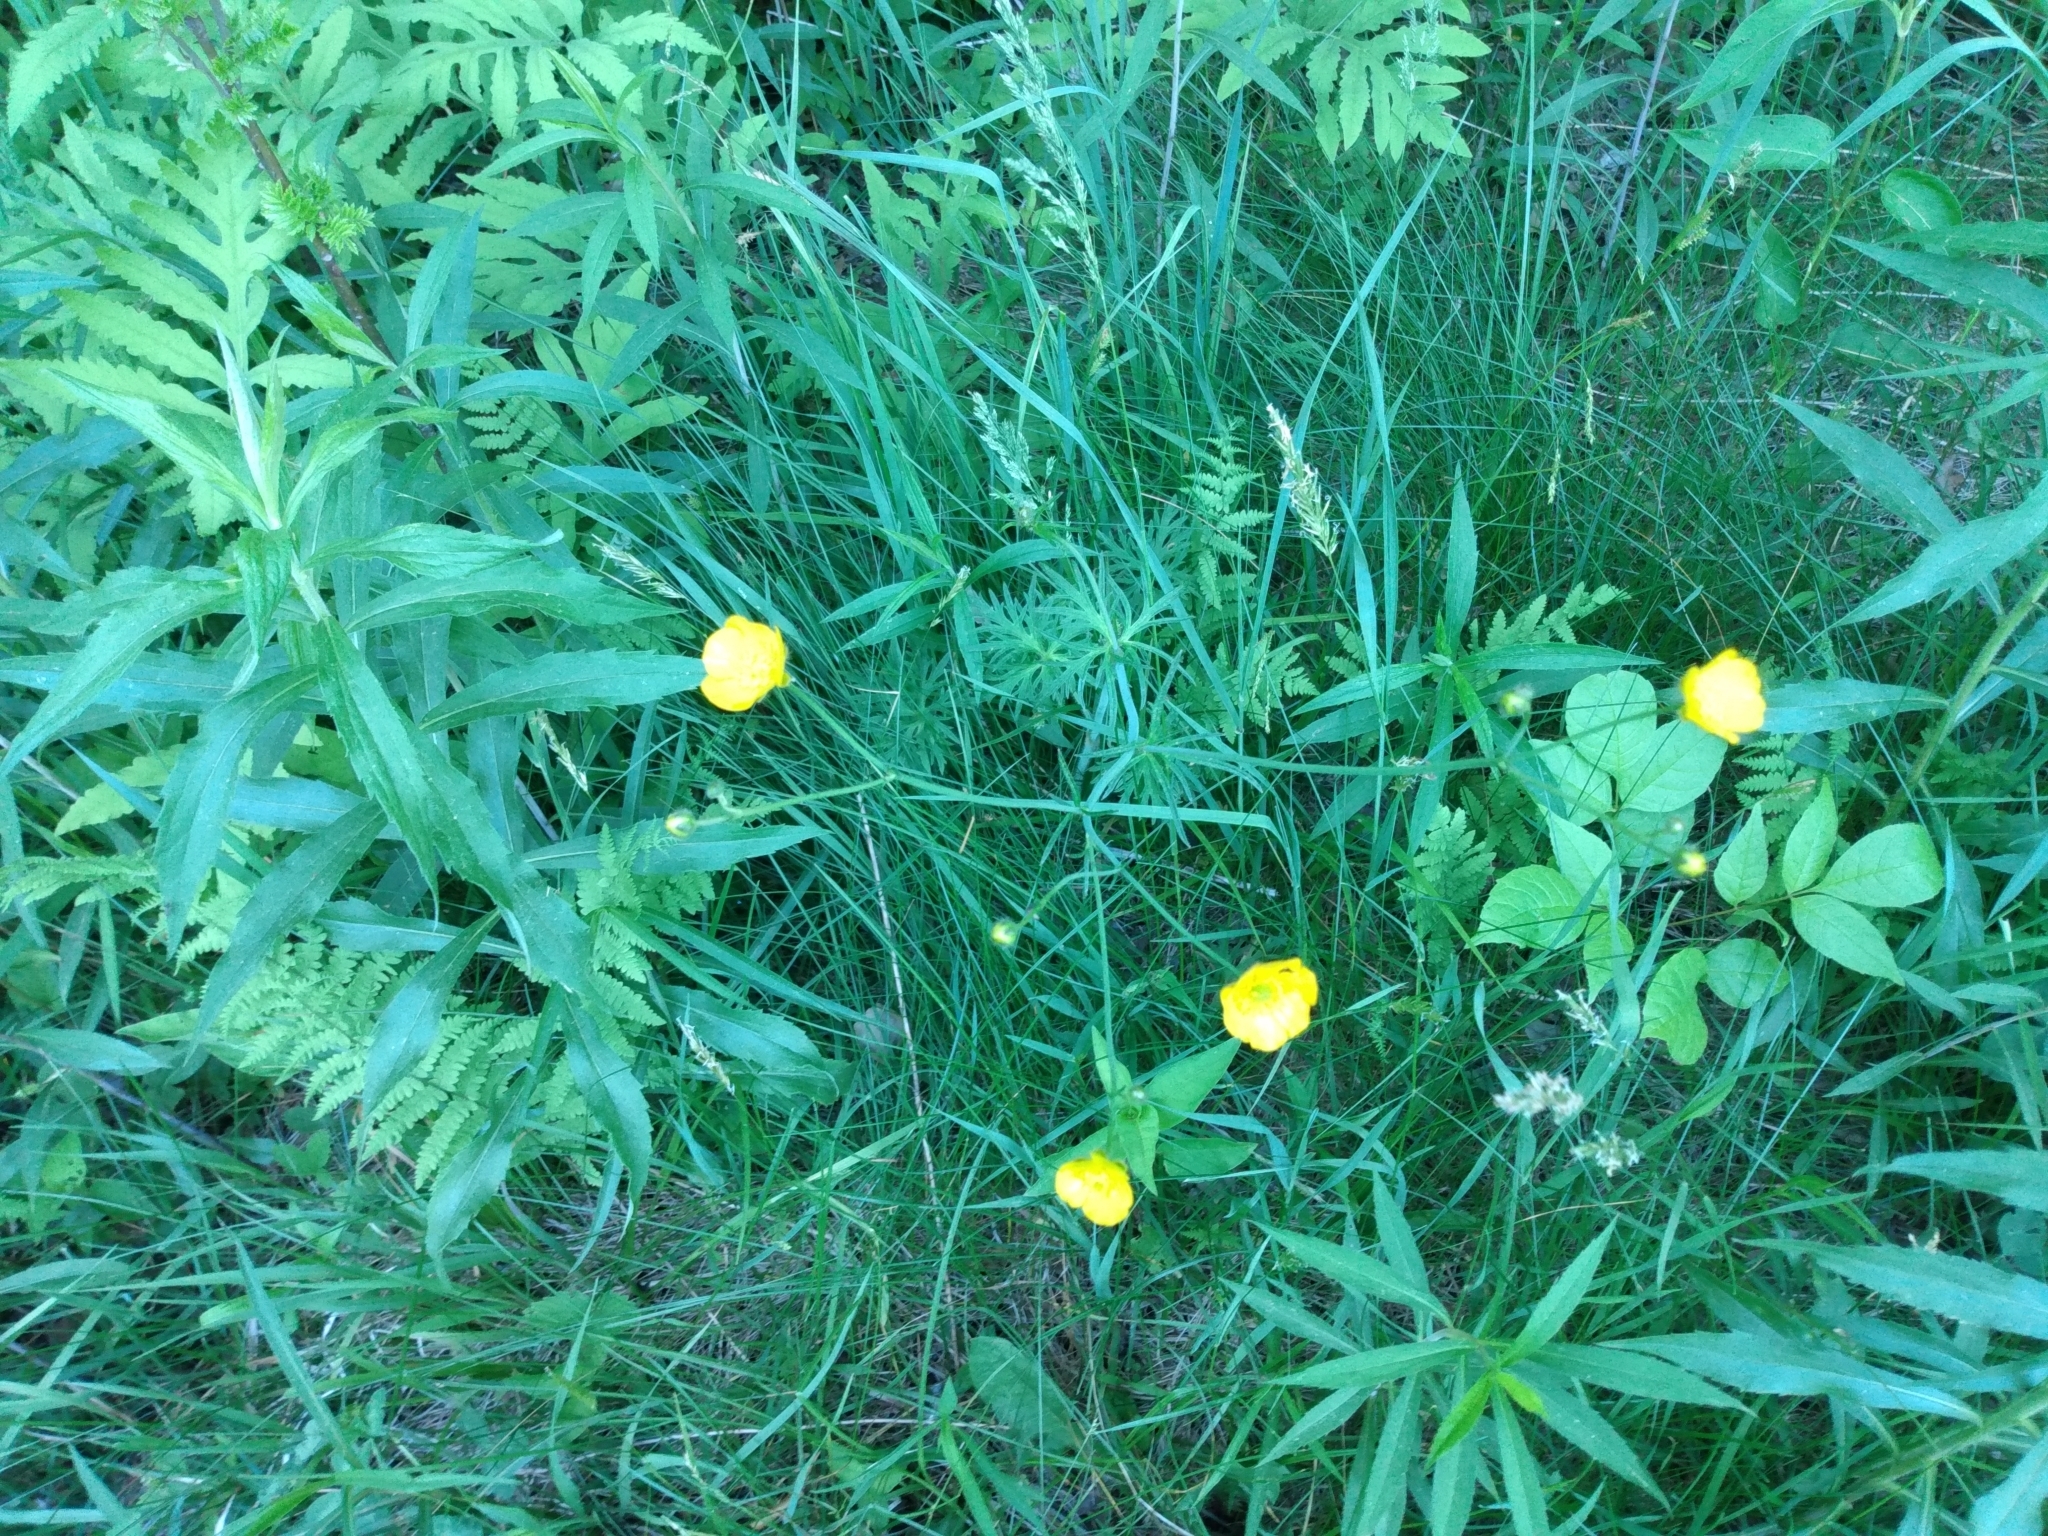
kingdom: Plantae
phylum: Tracheophyta
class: Magnoliopsida
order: Ranunculales
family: Ranunculaceae
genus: Ranunculus
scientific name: Ranunculus acris
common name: Meadow buttercup
